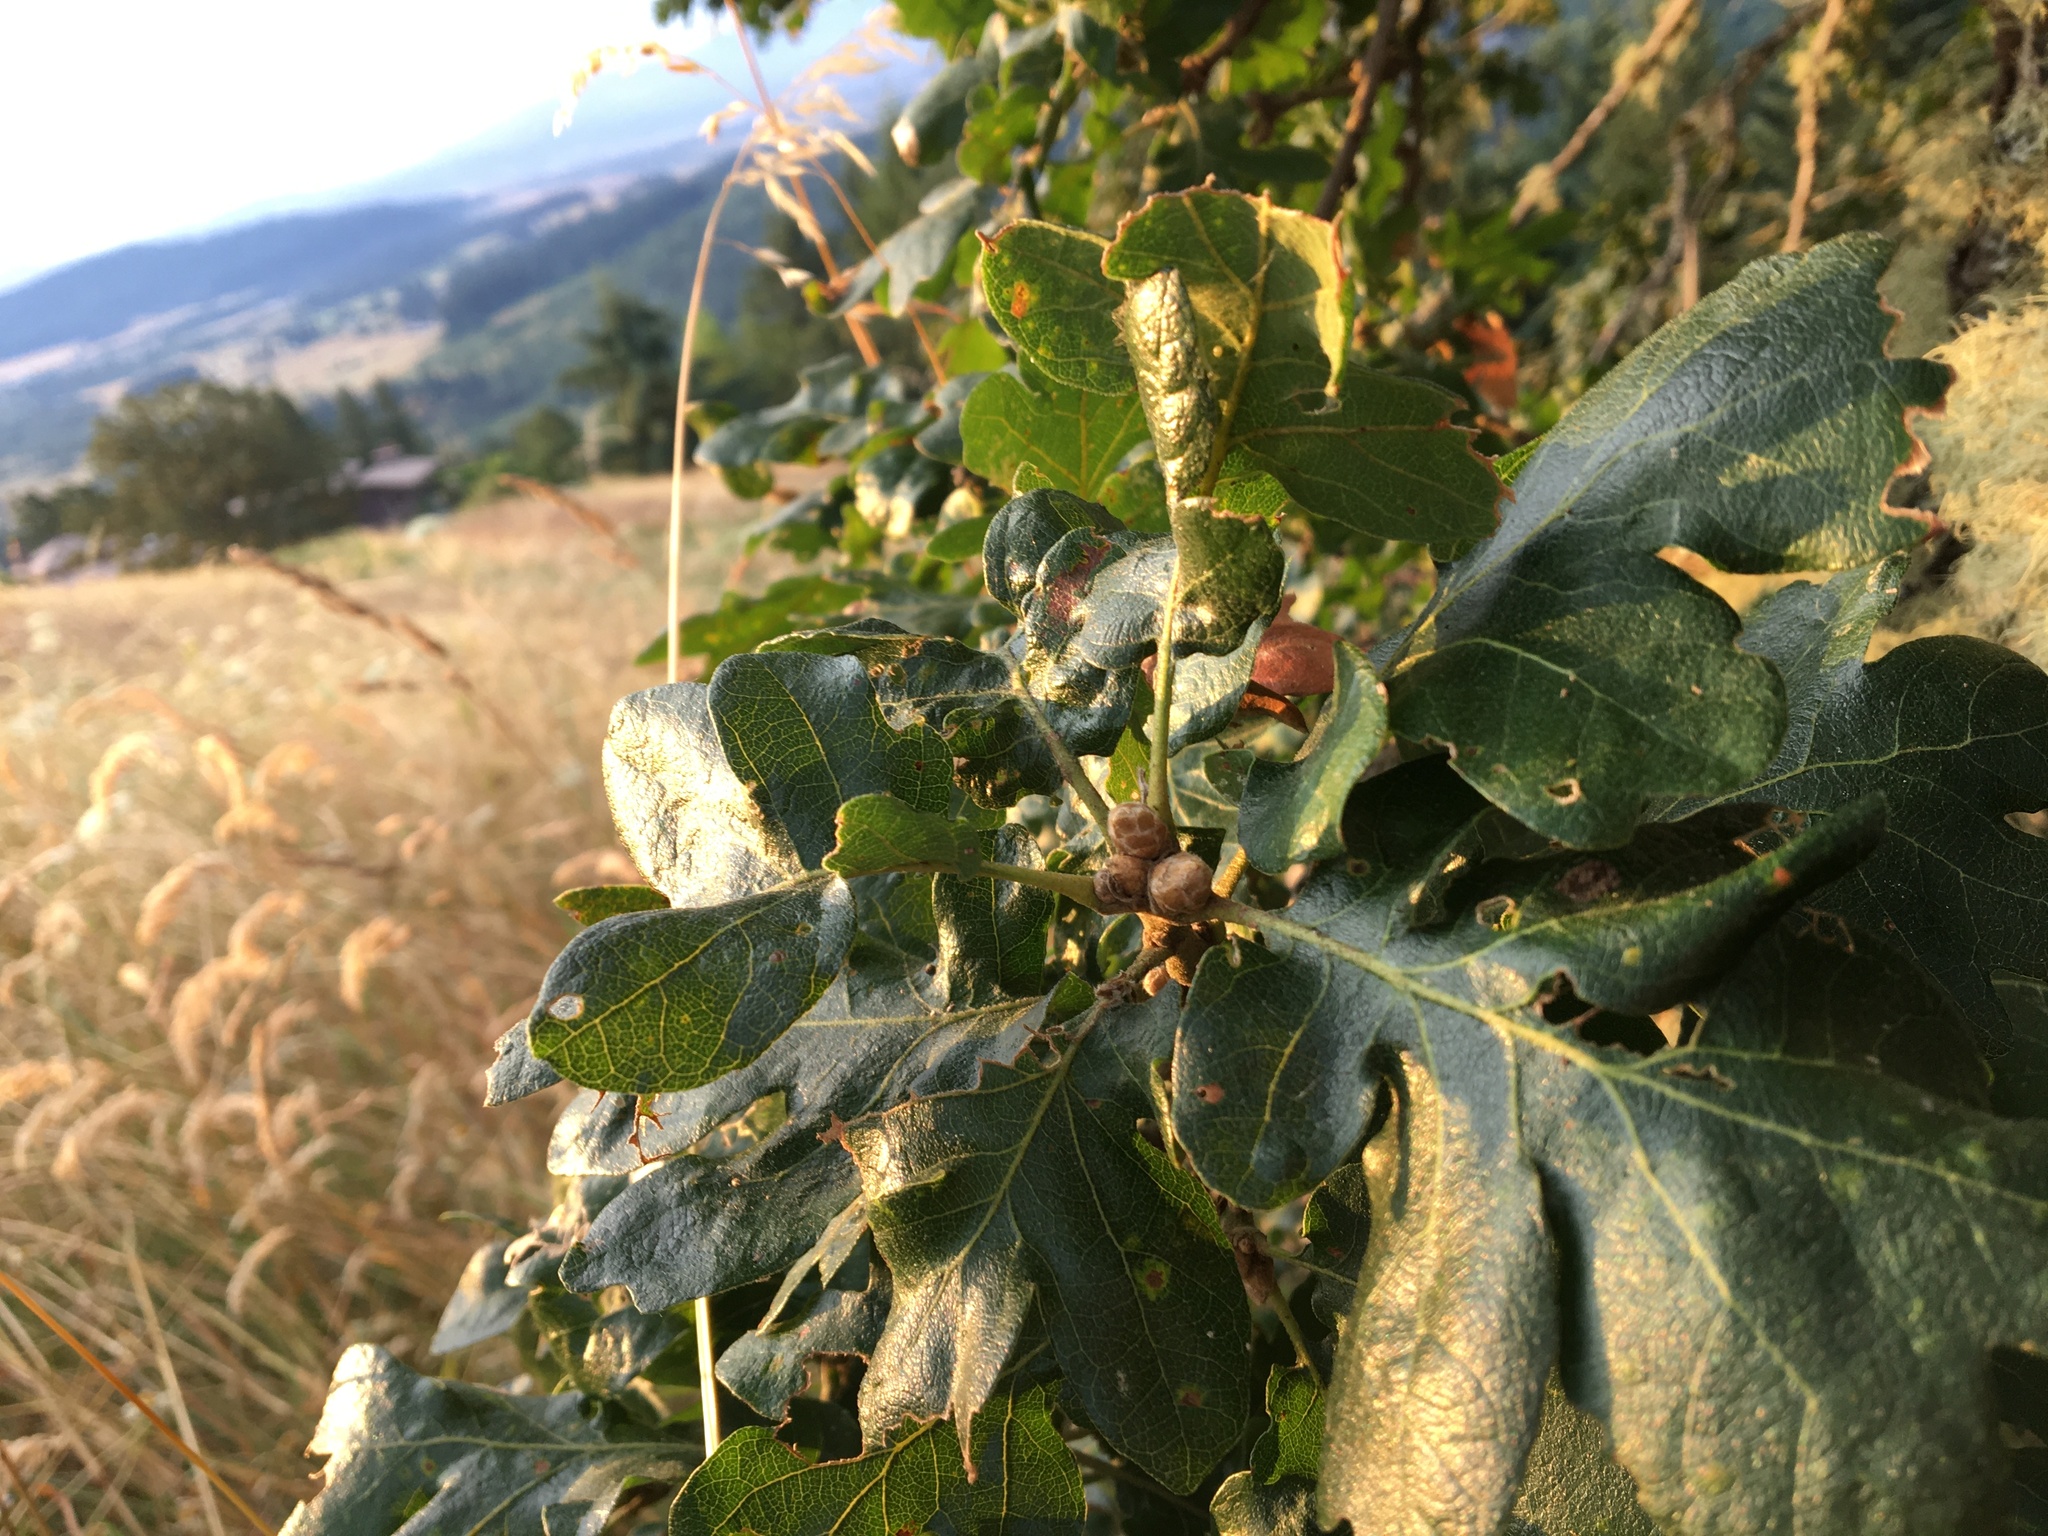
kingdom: Plantae
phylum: Tracheophyta
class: Magnoliopsida
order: Fagales
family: Fagaceae
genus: Quercus
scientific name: Quercus garryana
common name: Garry oak
